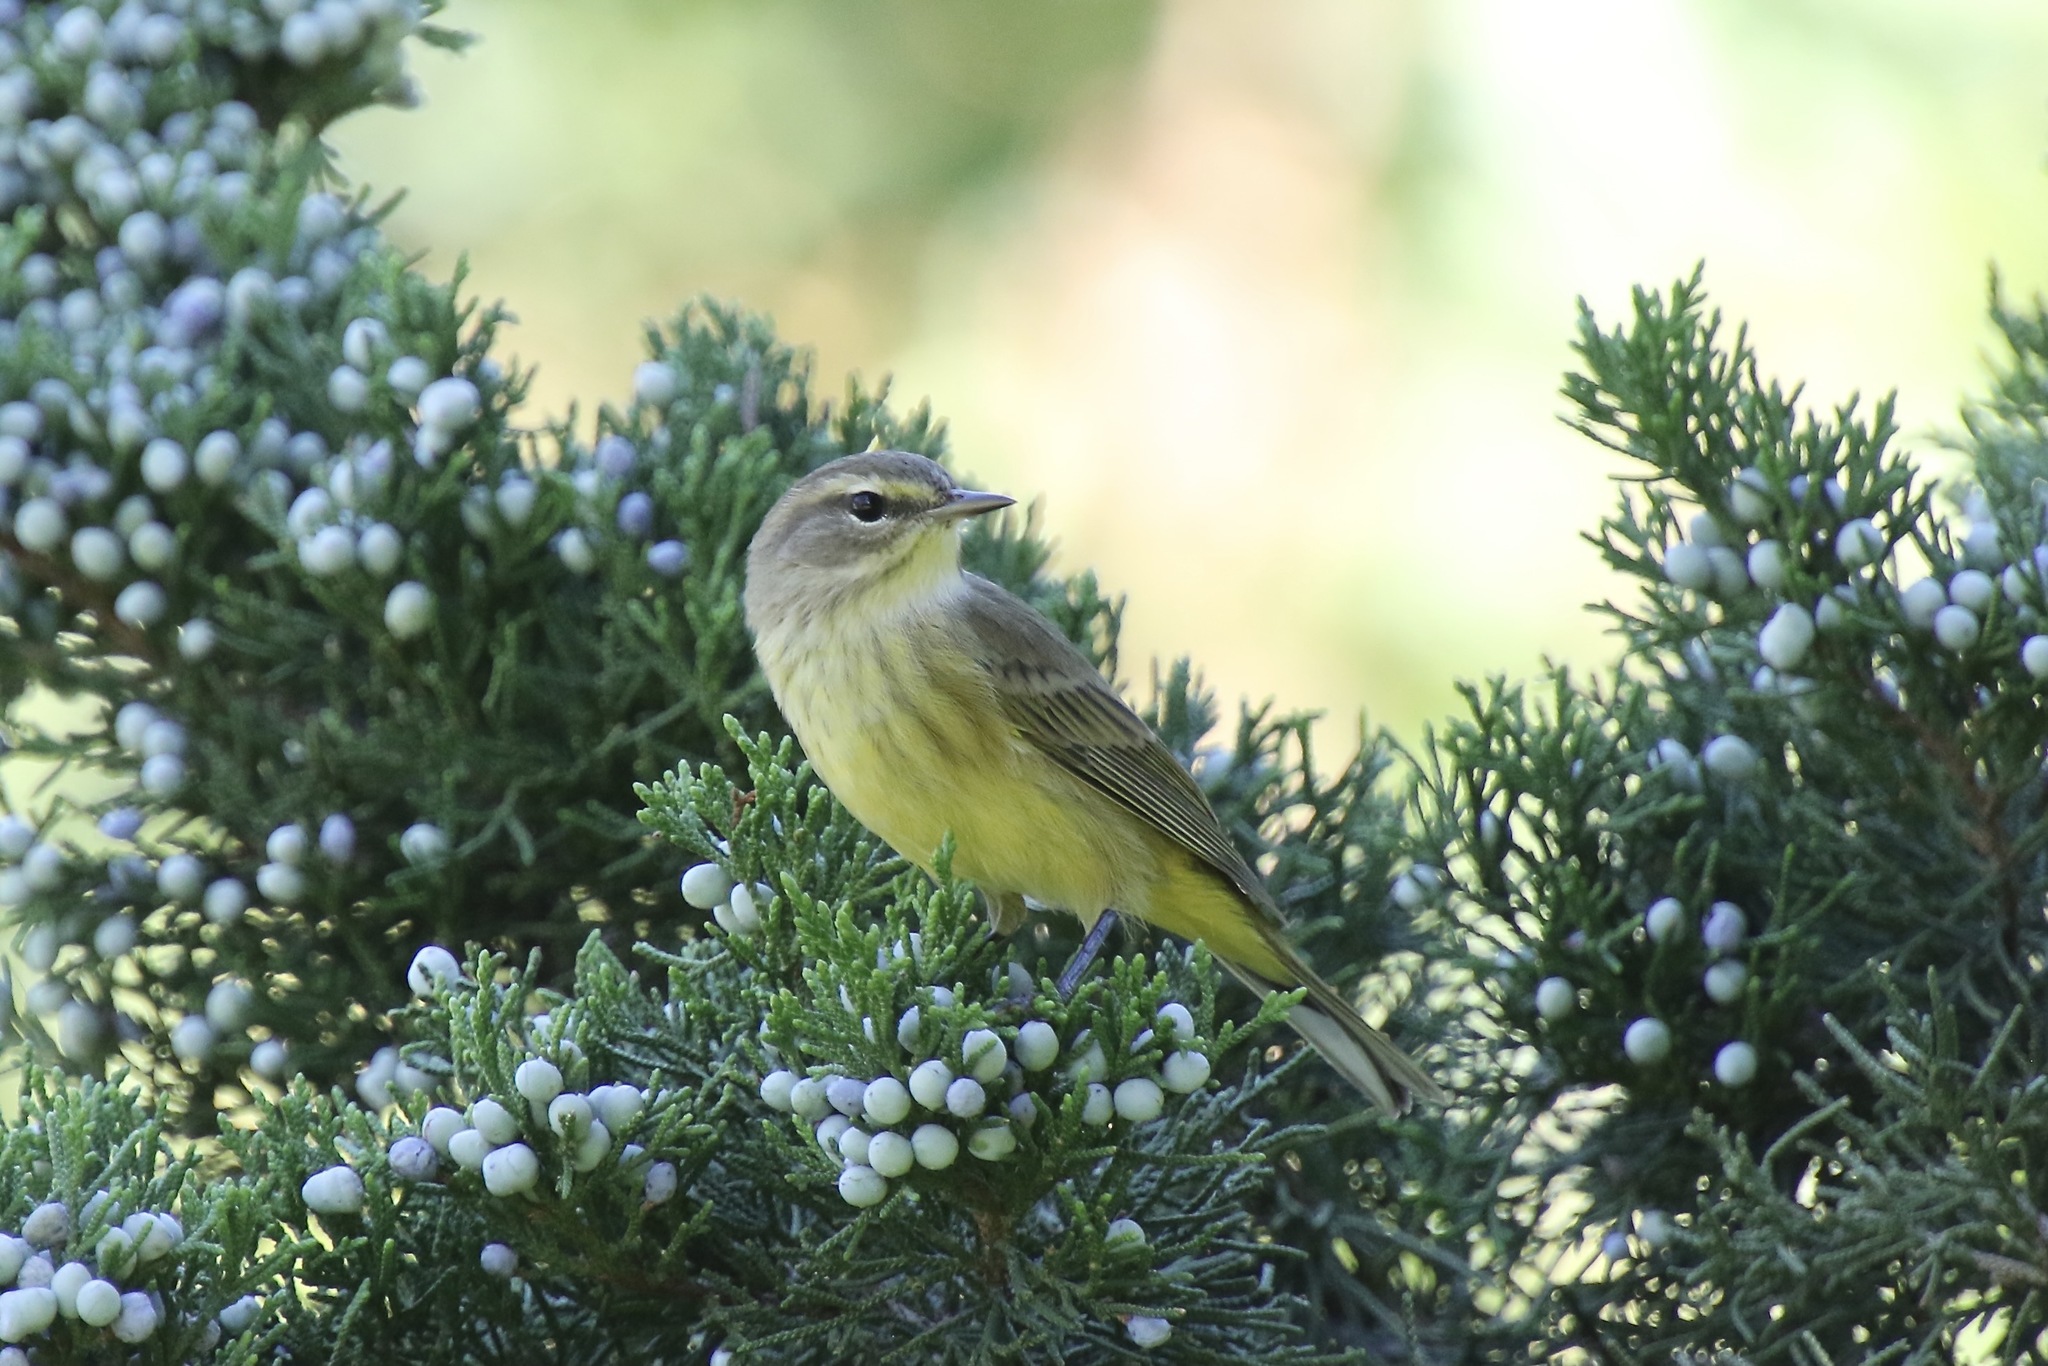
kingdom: Animalia
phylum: Chordata
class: Aves
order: Passeriformes
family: Parulidae
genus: Setophaga
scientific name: Setophaga palmarum
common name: Palm warbler
